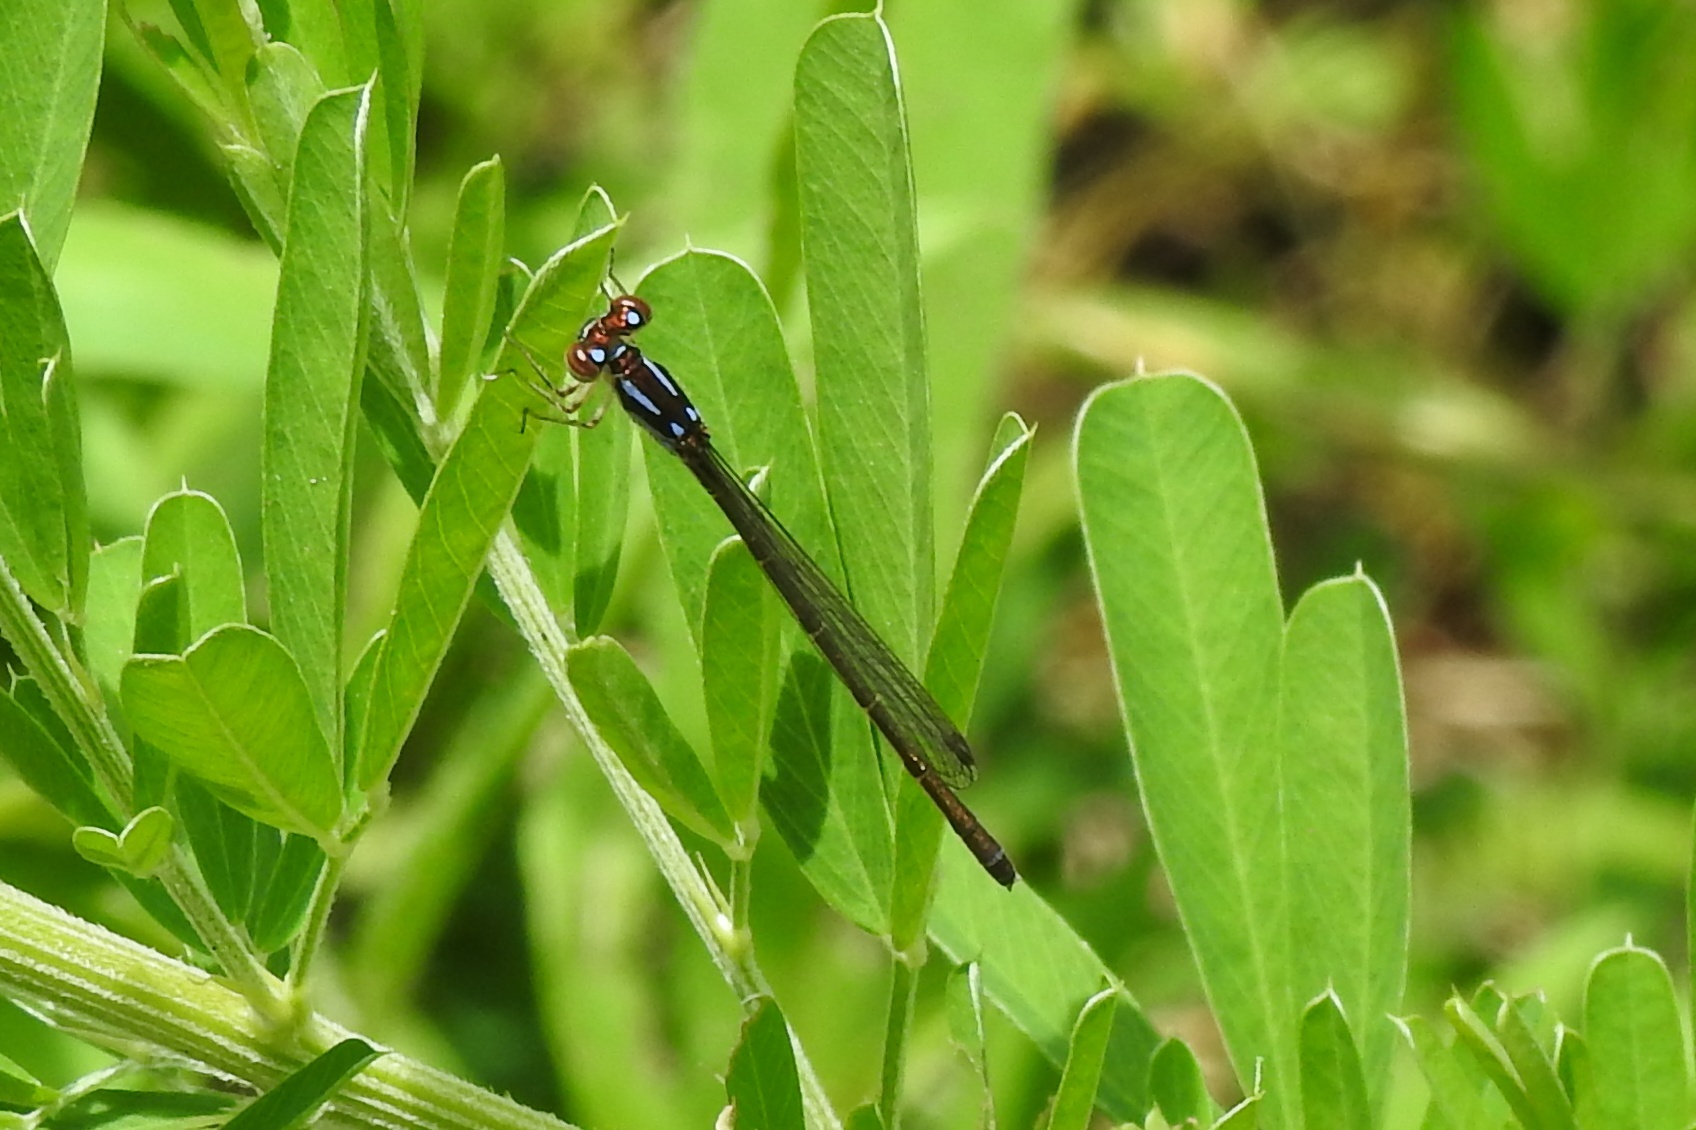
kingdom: Animalia
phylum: Arthropoda
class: Insecta
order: Odonata
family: Coenagrionidae
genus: Ischnura
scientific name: Ischnura posita
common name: Fragile forktail
